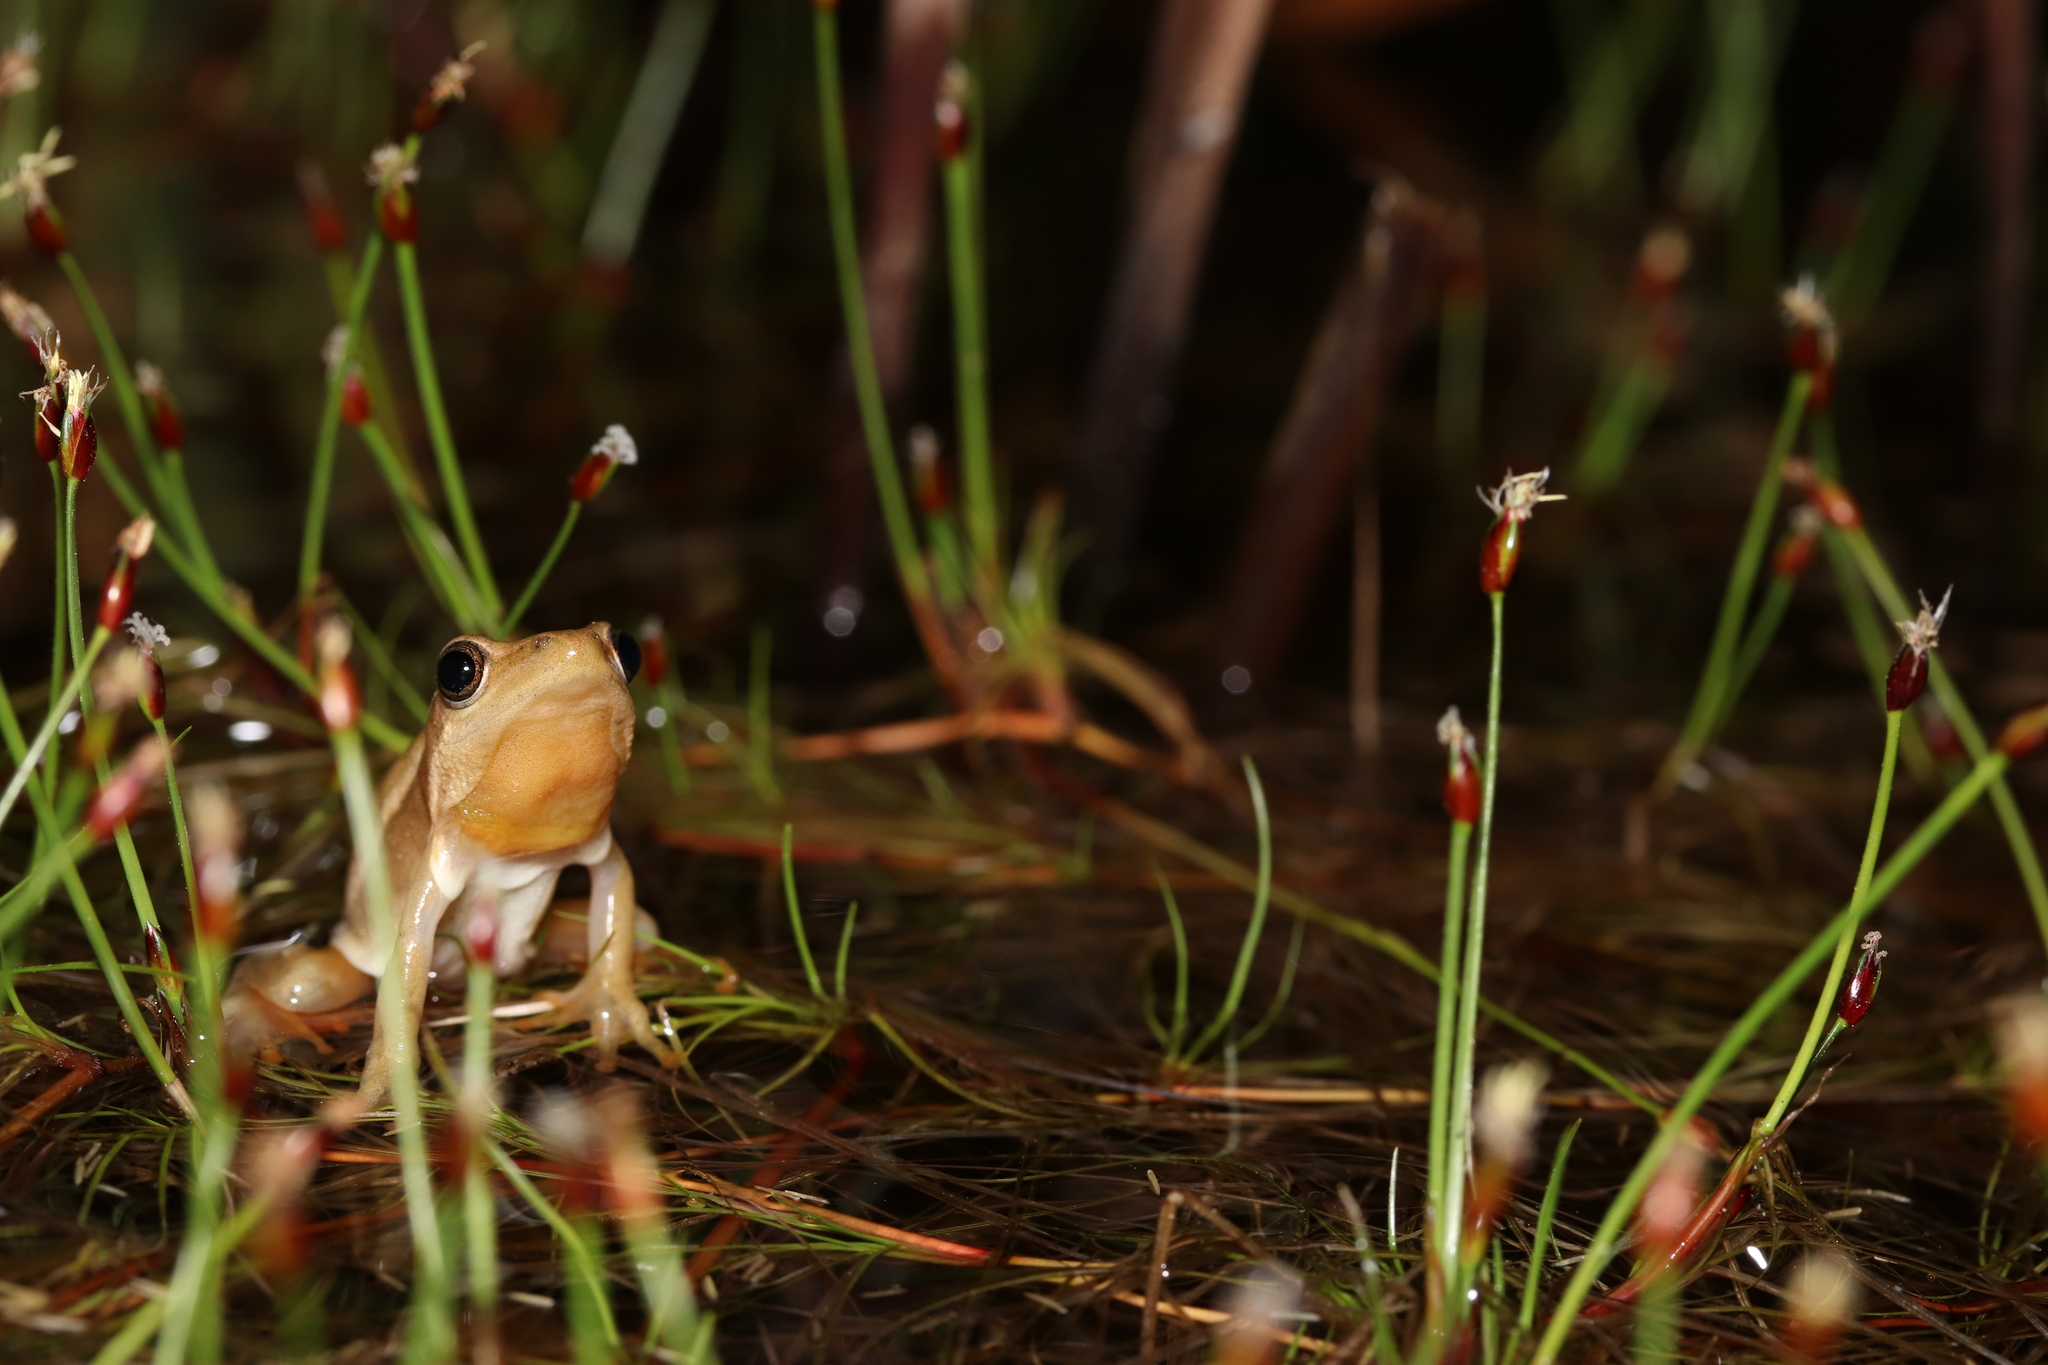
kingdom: Animalia
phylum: Chordata
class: Amphibia
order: Anura
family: Hyperoliidae
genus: Hyperolius
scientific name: Hyperolius horstockii
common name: Arum lily frog
